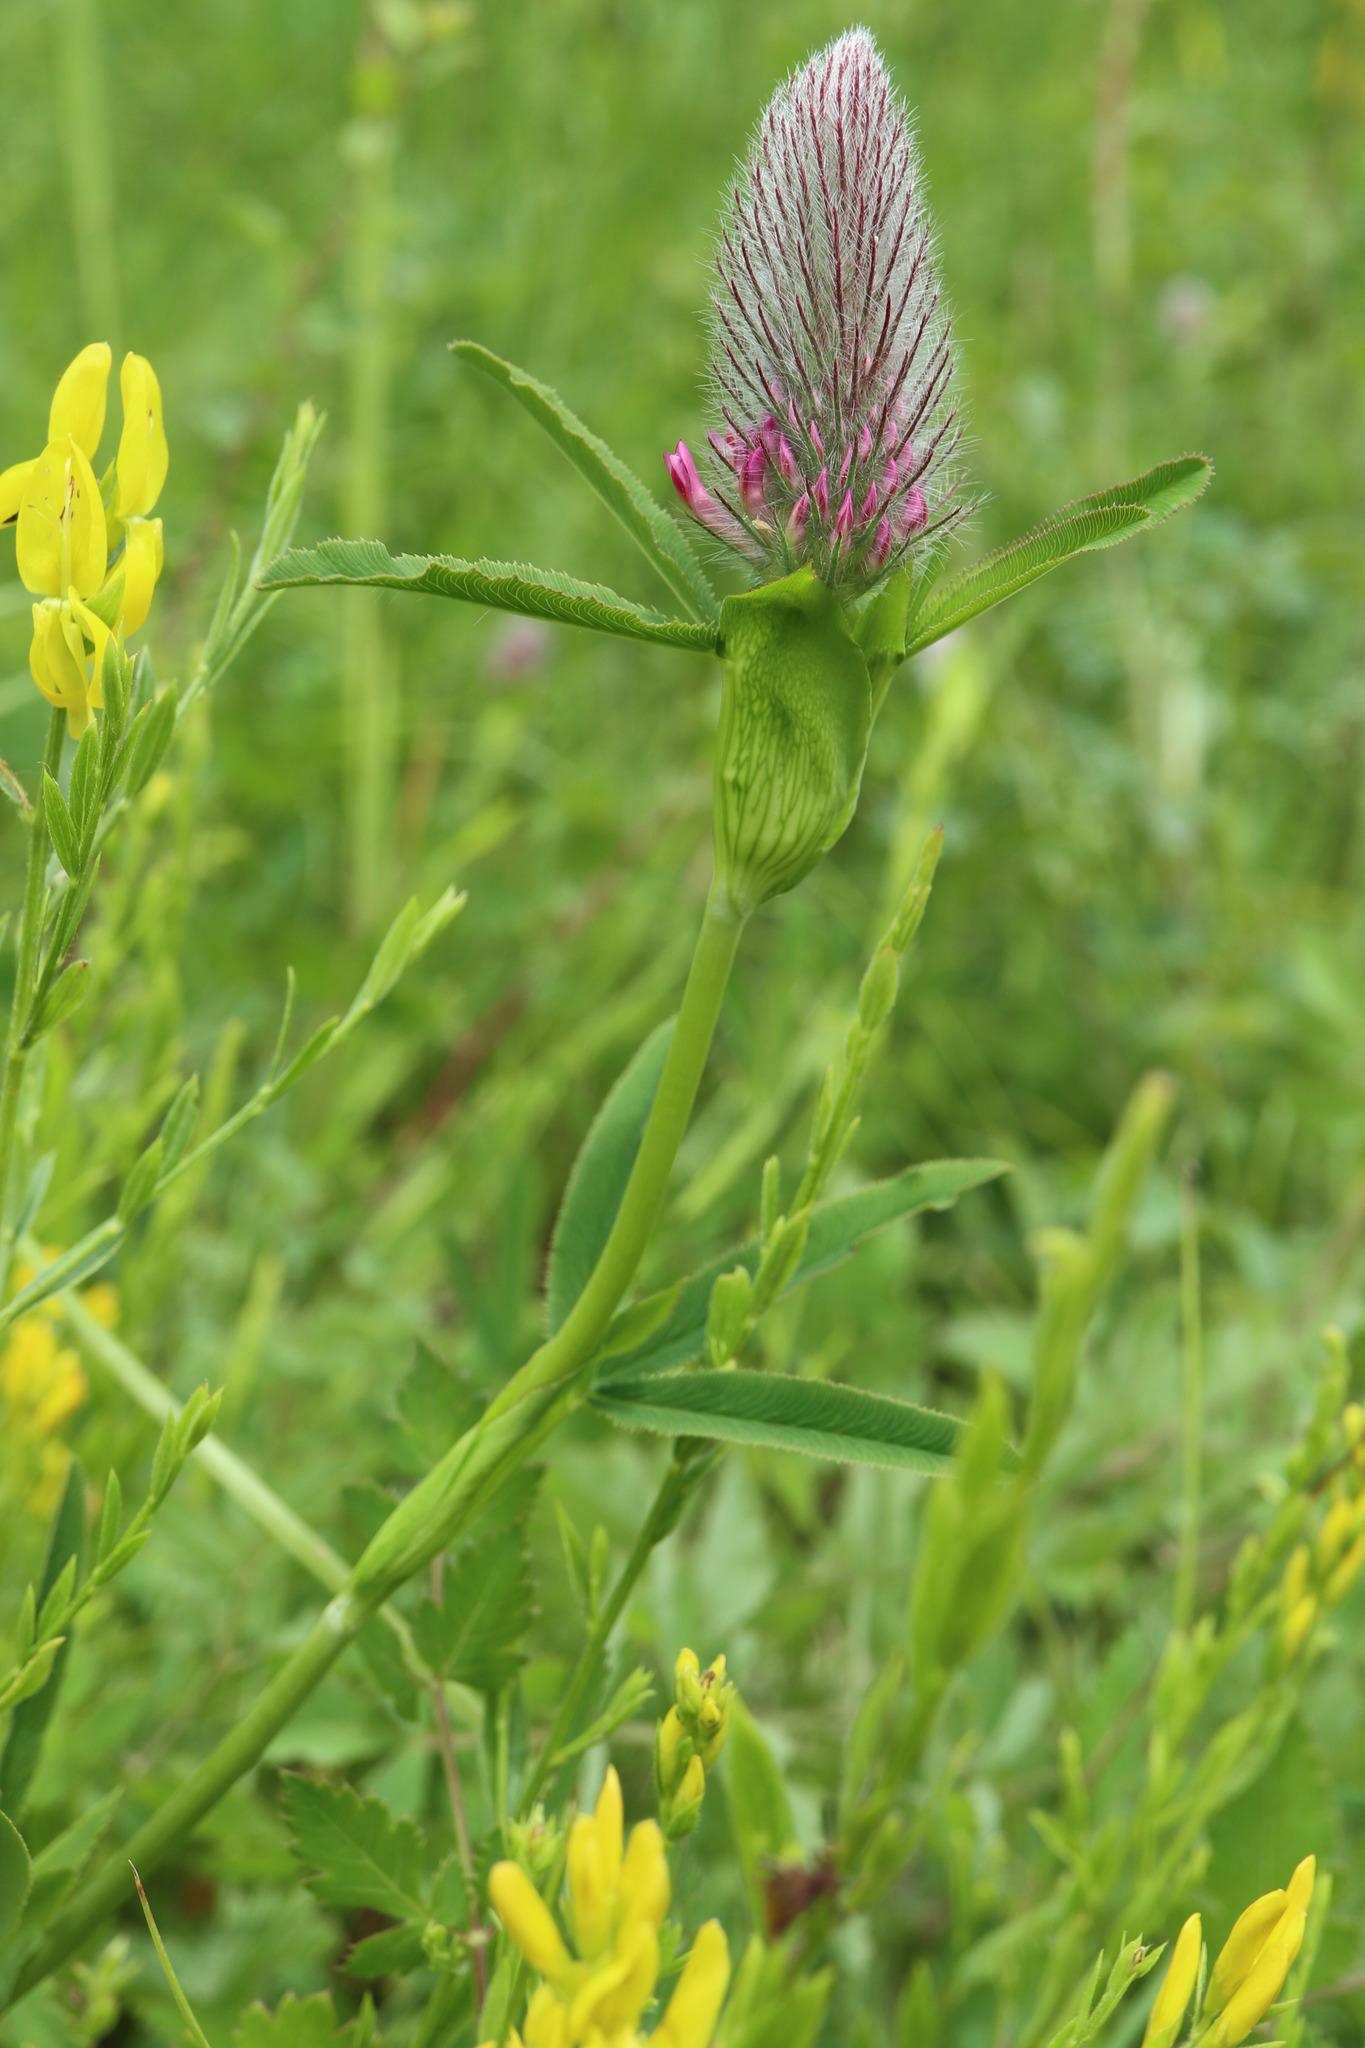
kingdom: Plantae
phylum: Tracheophyta
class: Magnoliopsida
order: Fabales
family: Fabaceae
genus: Trifolium
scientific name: Trifolium rubens
